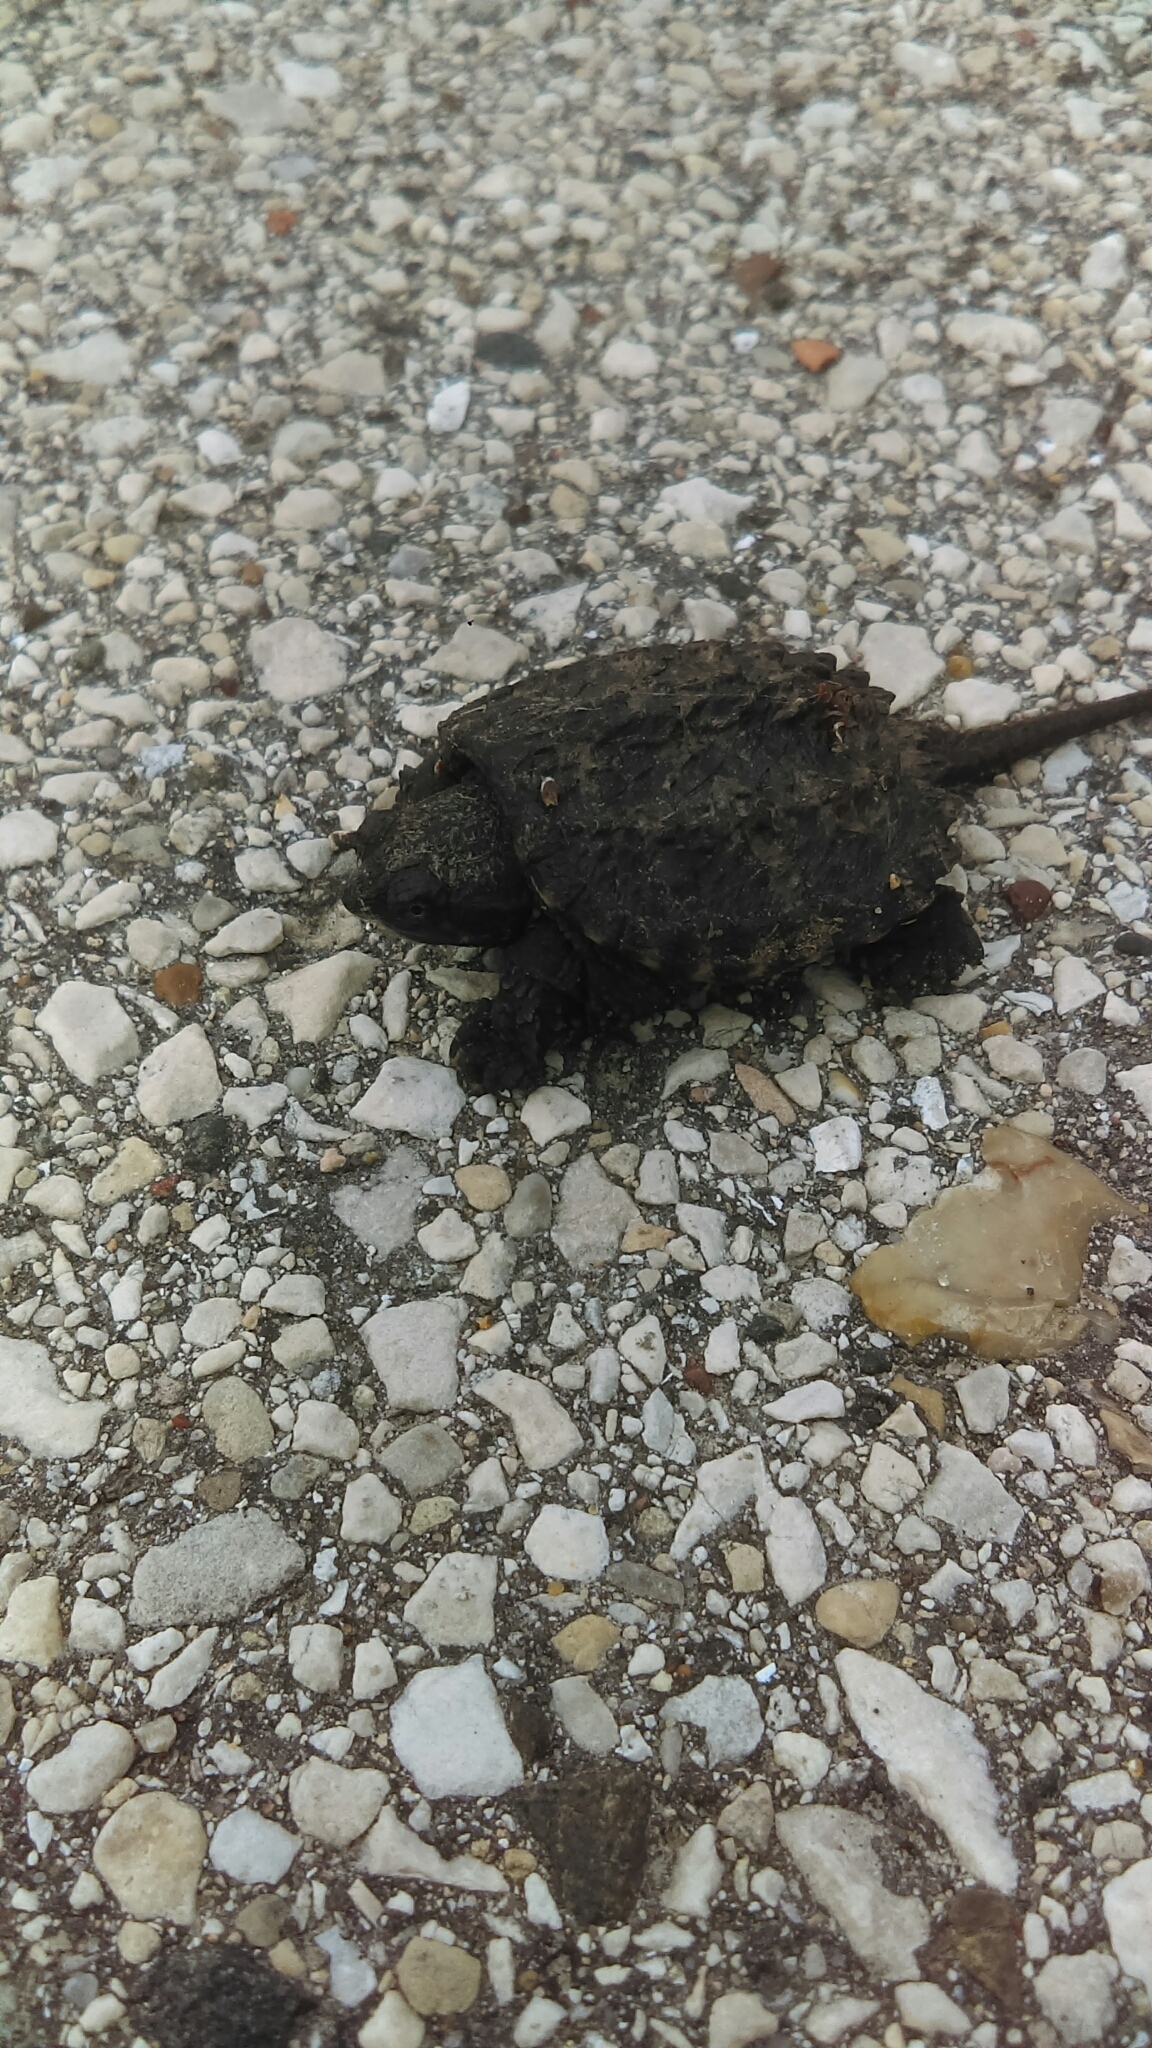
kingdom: Animalia
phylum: Chordata
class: Testudines
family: Chelydridae
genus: Chelydra
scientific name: Chelydra serpentina
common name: Common snapping turtle
